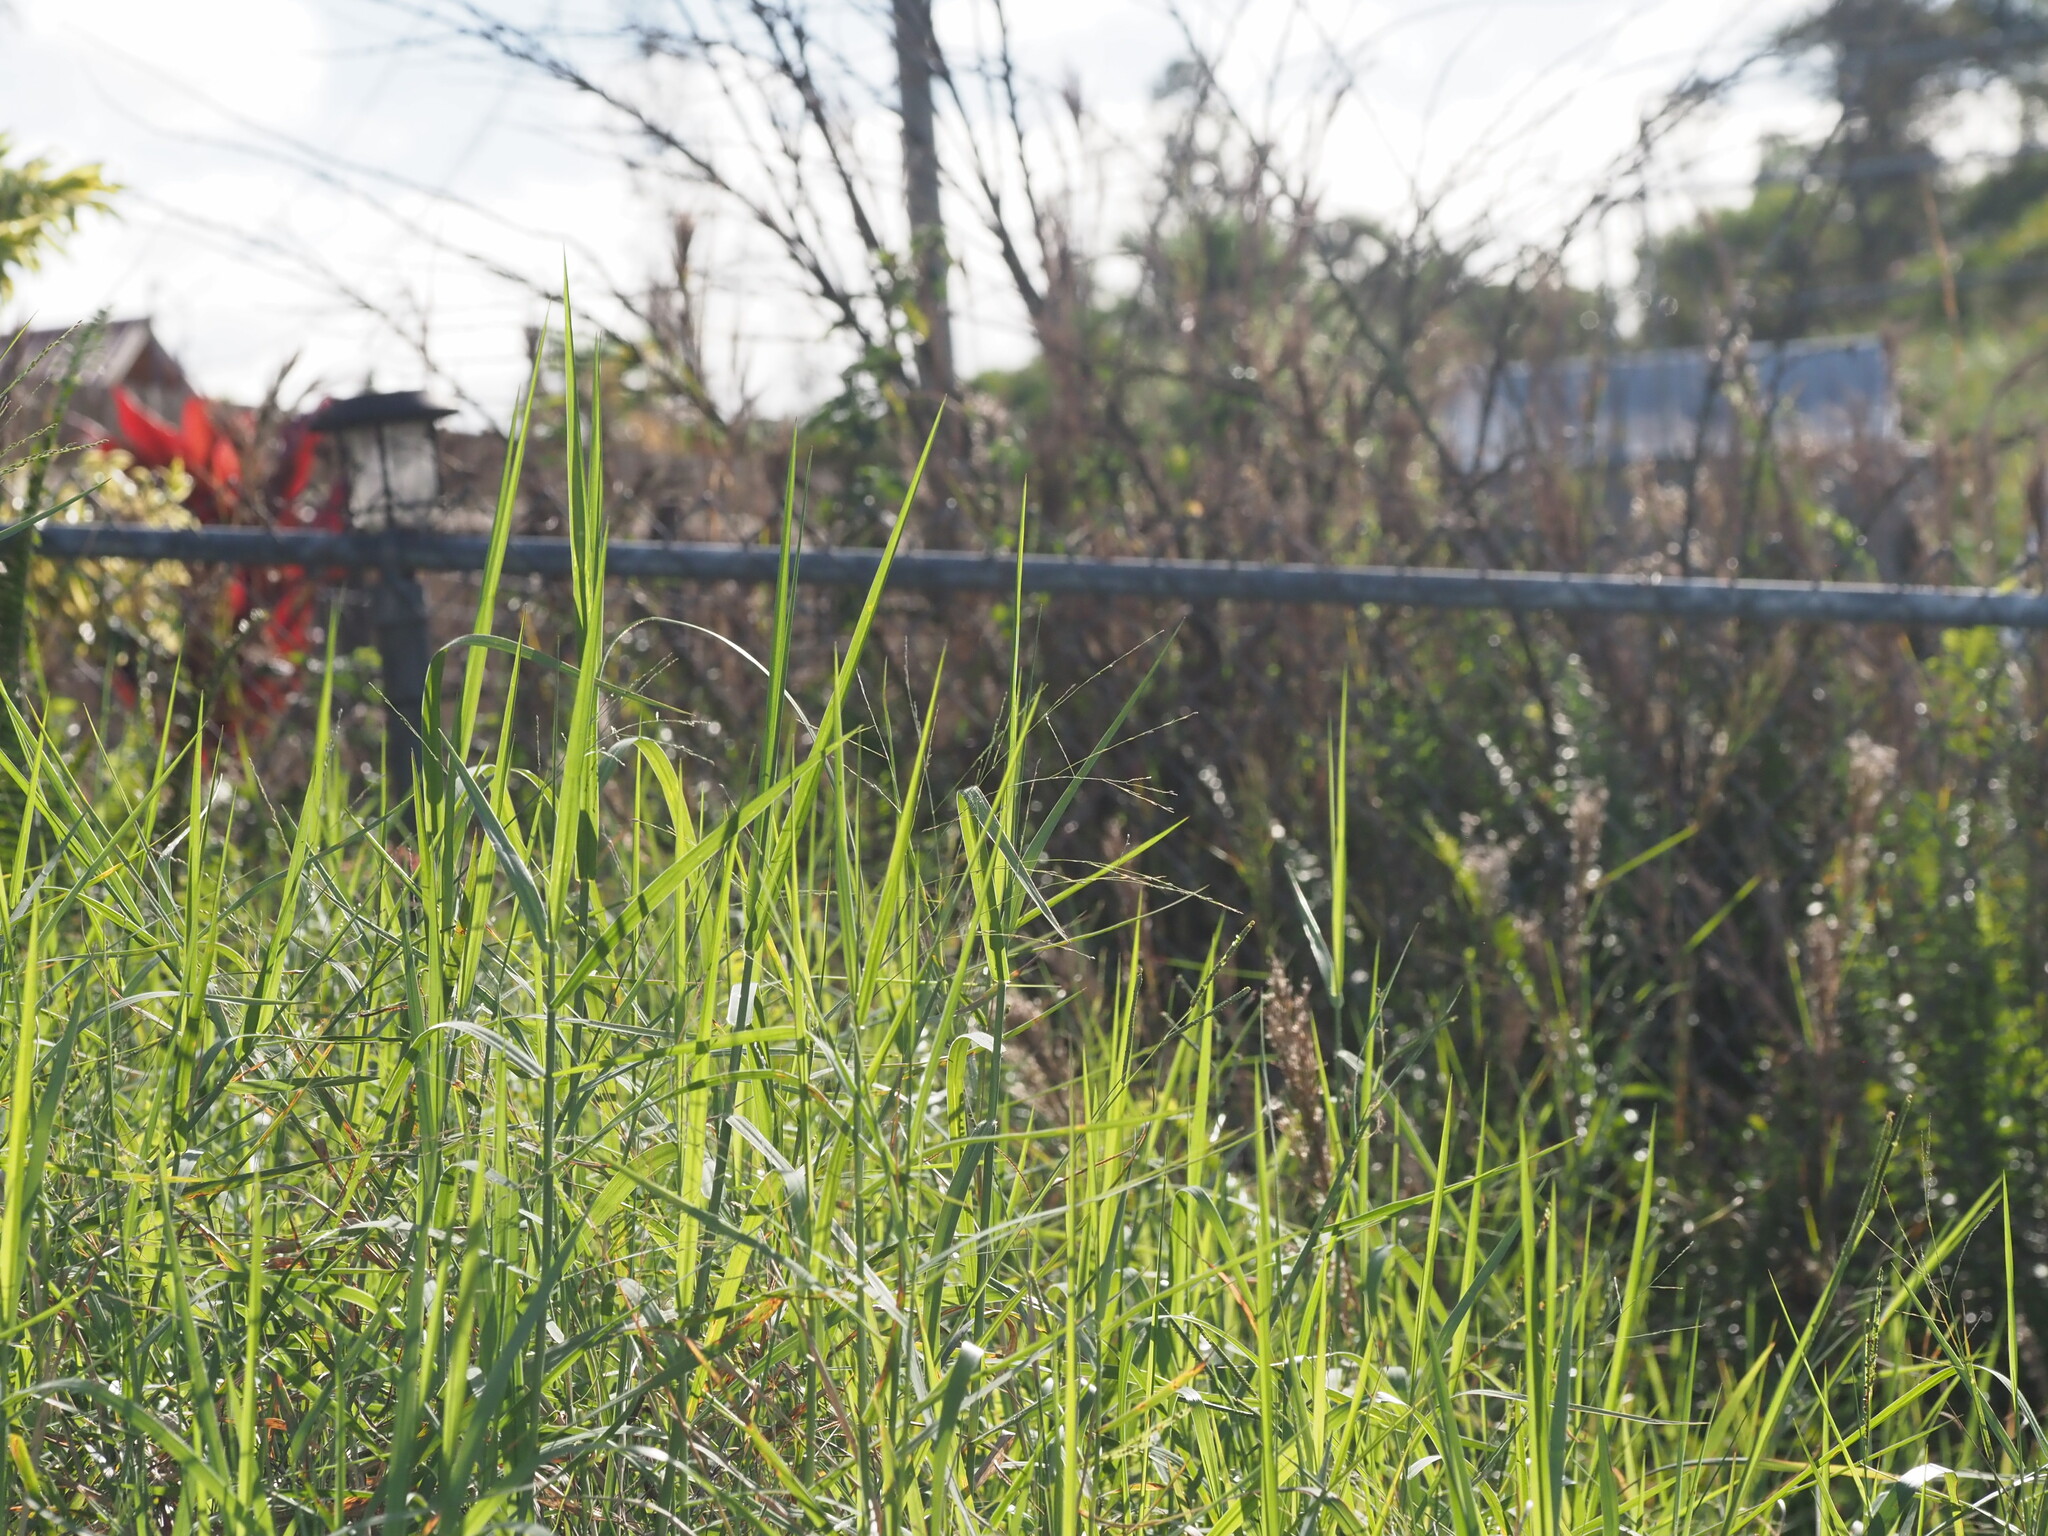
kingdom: Plantae
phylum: Tracheophyta
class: Liliopsida
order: Poales
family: Poaceae
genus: Panicum
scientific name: Panicum repens
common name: Torpedo grass
